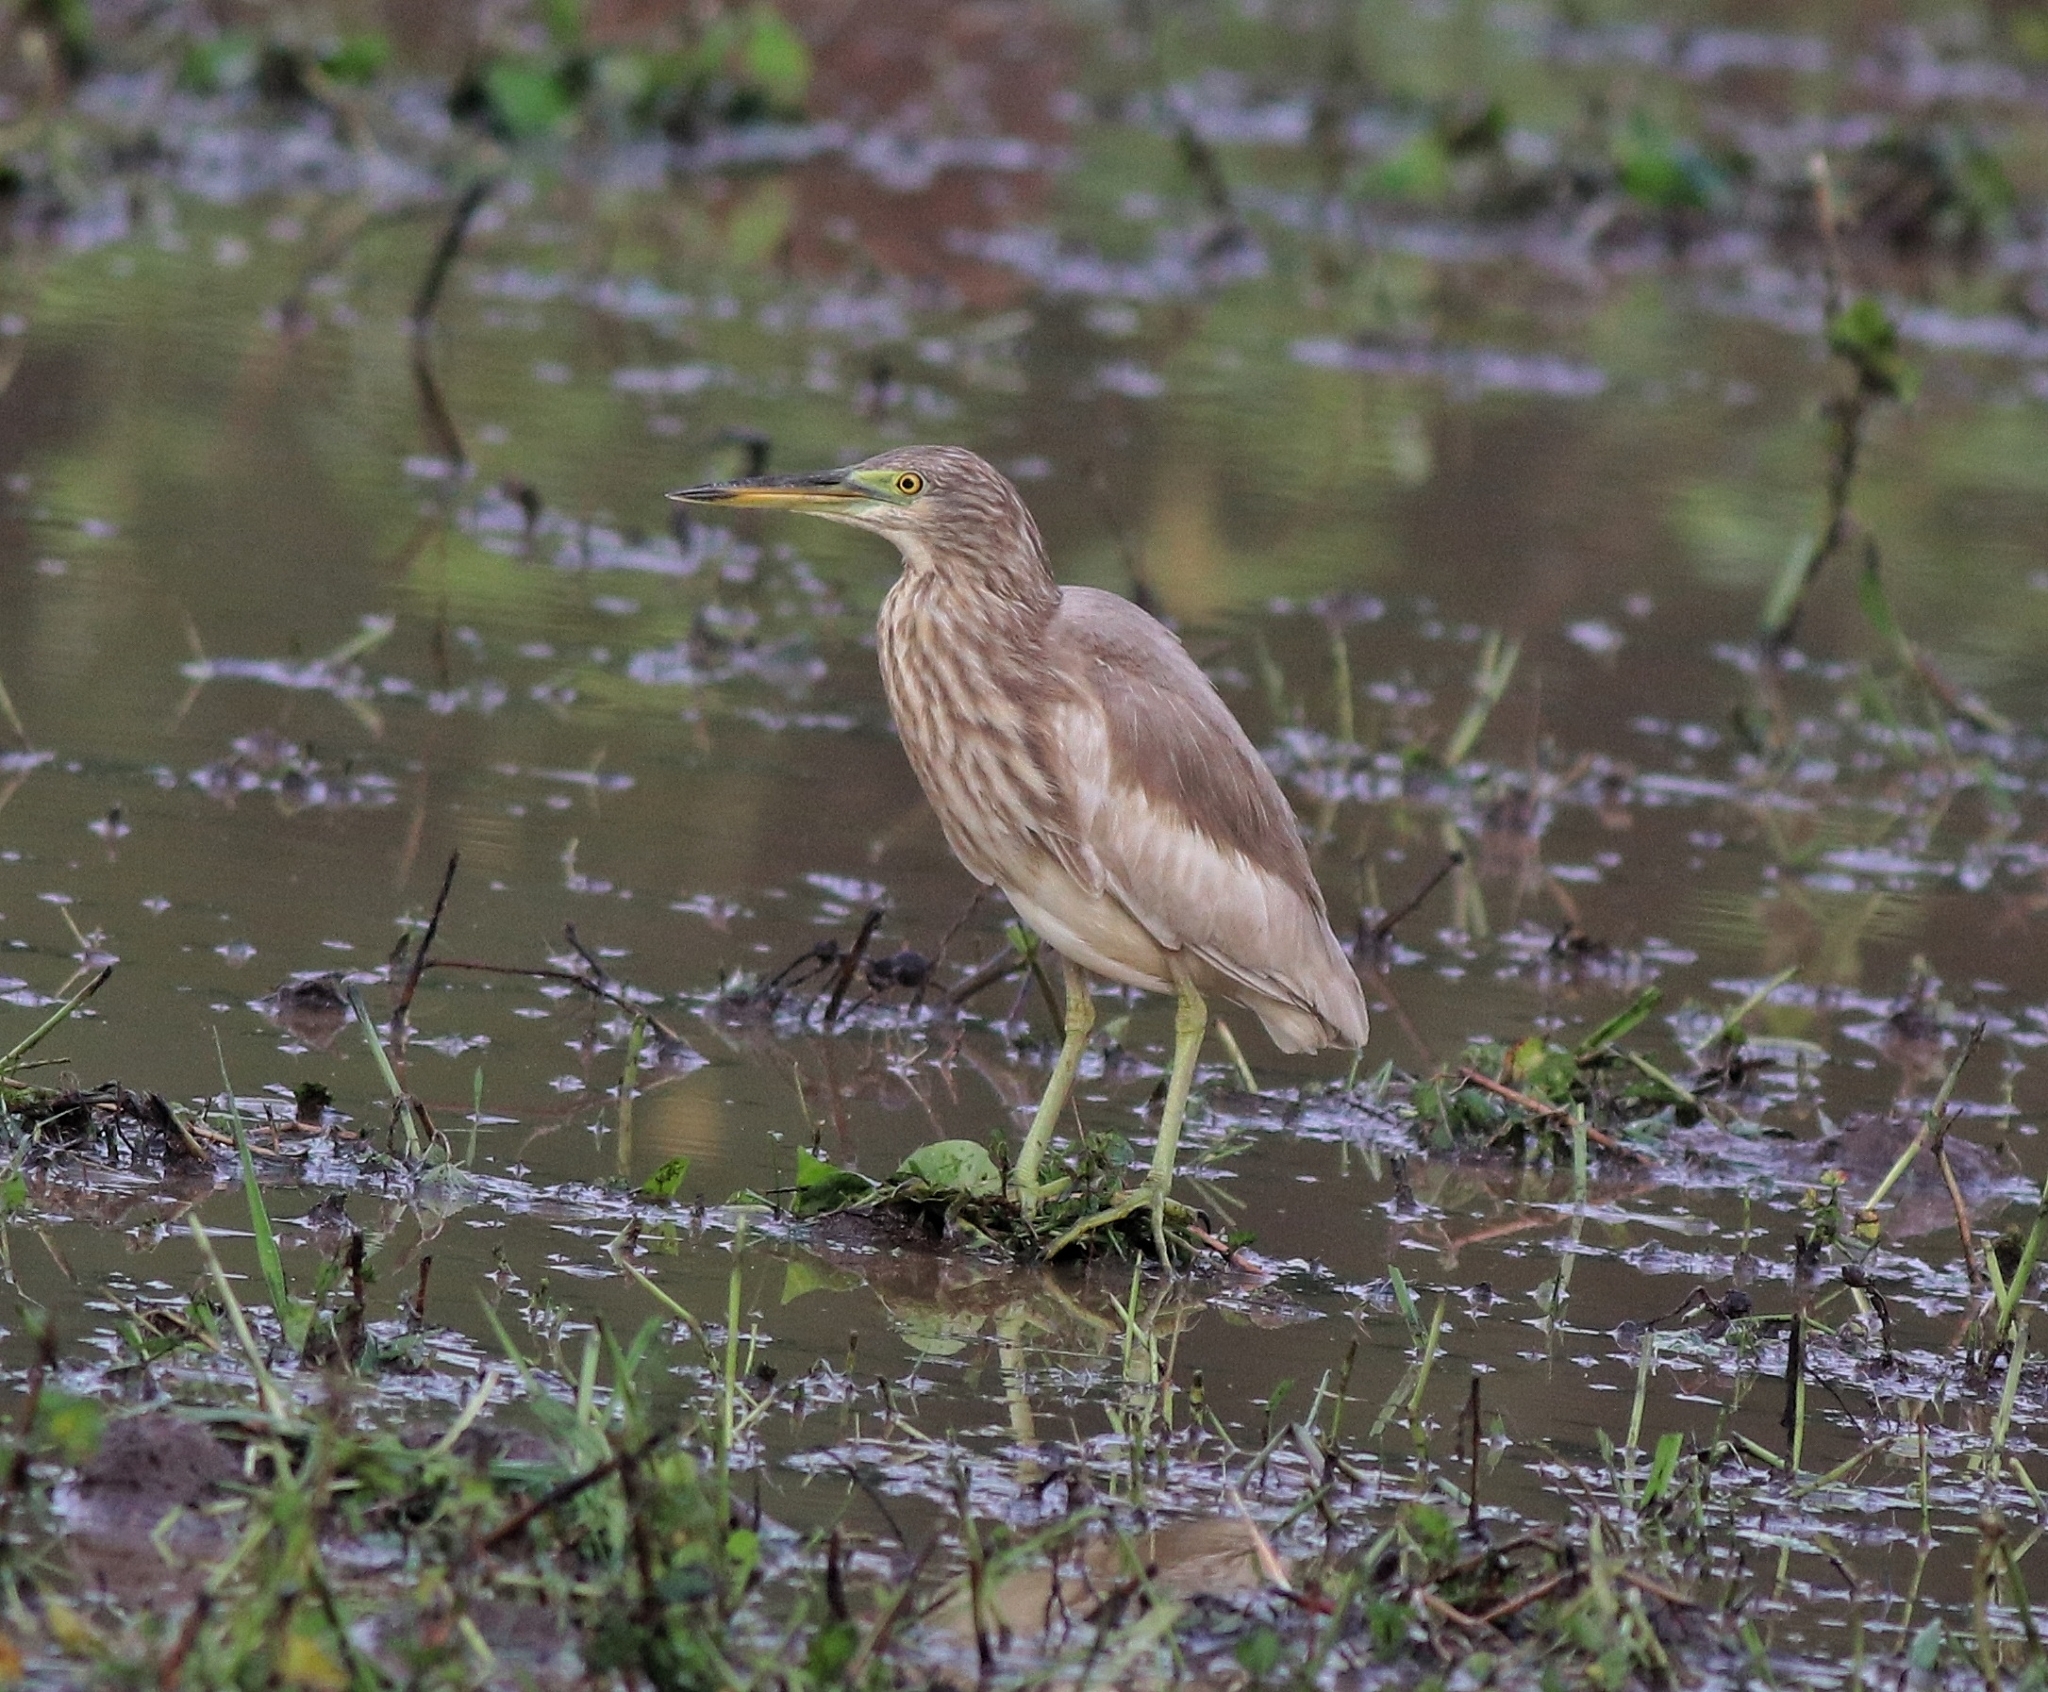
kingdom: Animalia
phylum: Chordata
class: Aves
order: Pelecaniformes
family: Ardeidae
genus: Ardeola
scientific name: Ardeola grayii
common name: Indian pond heron
